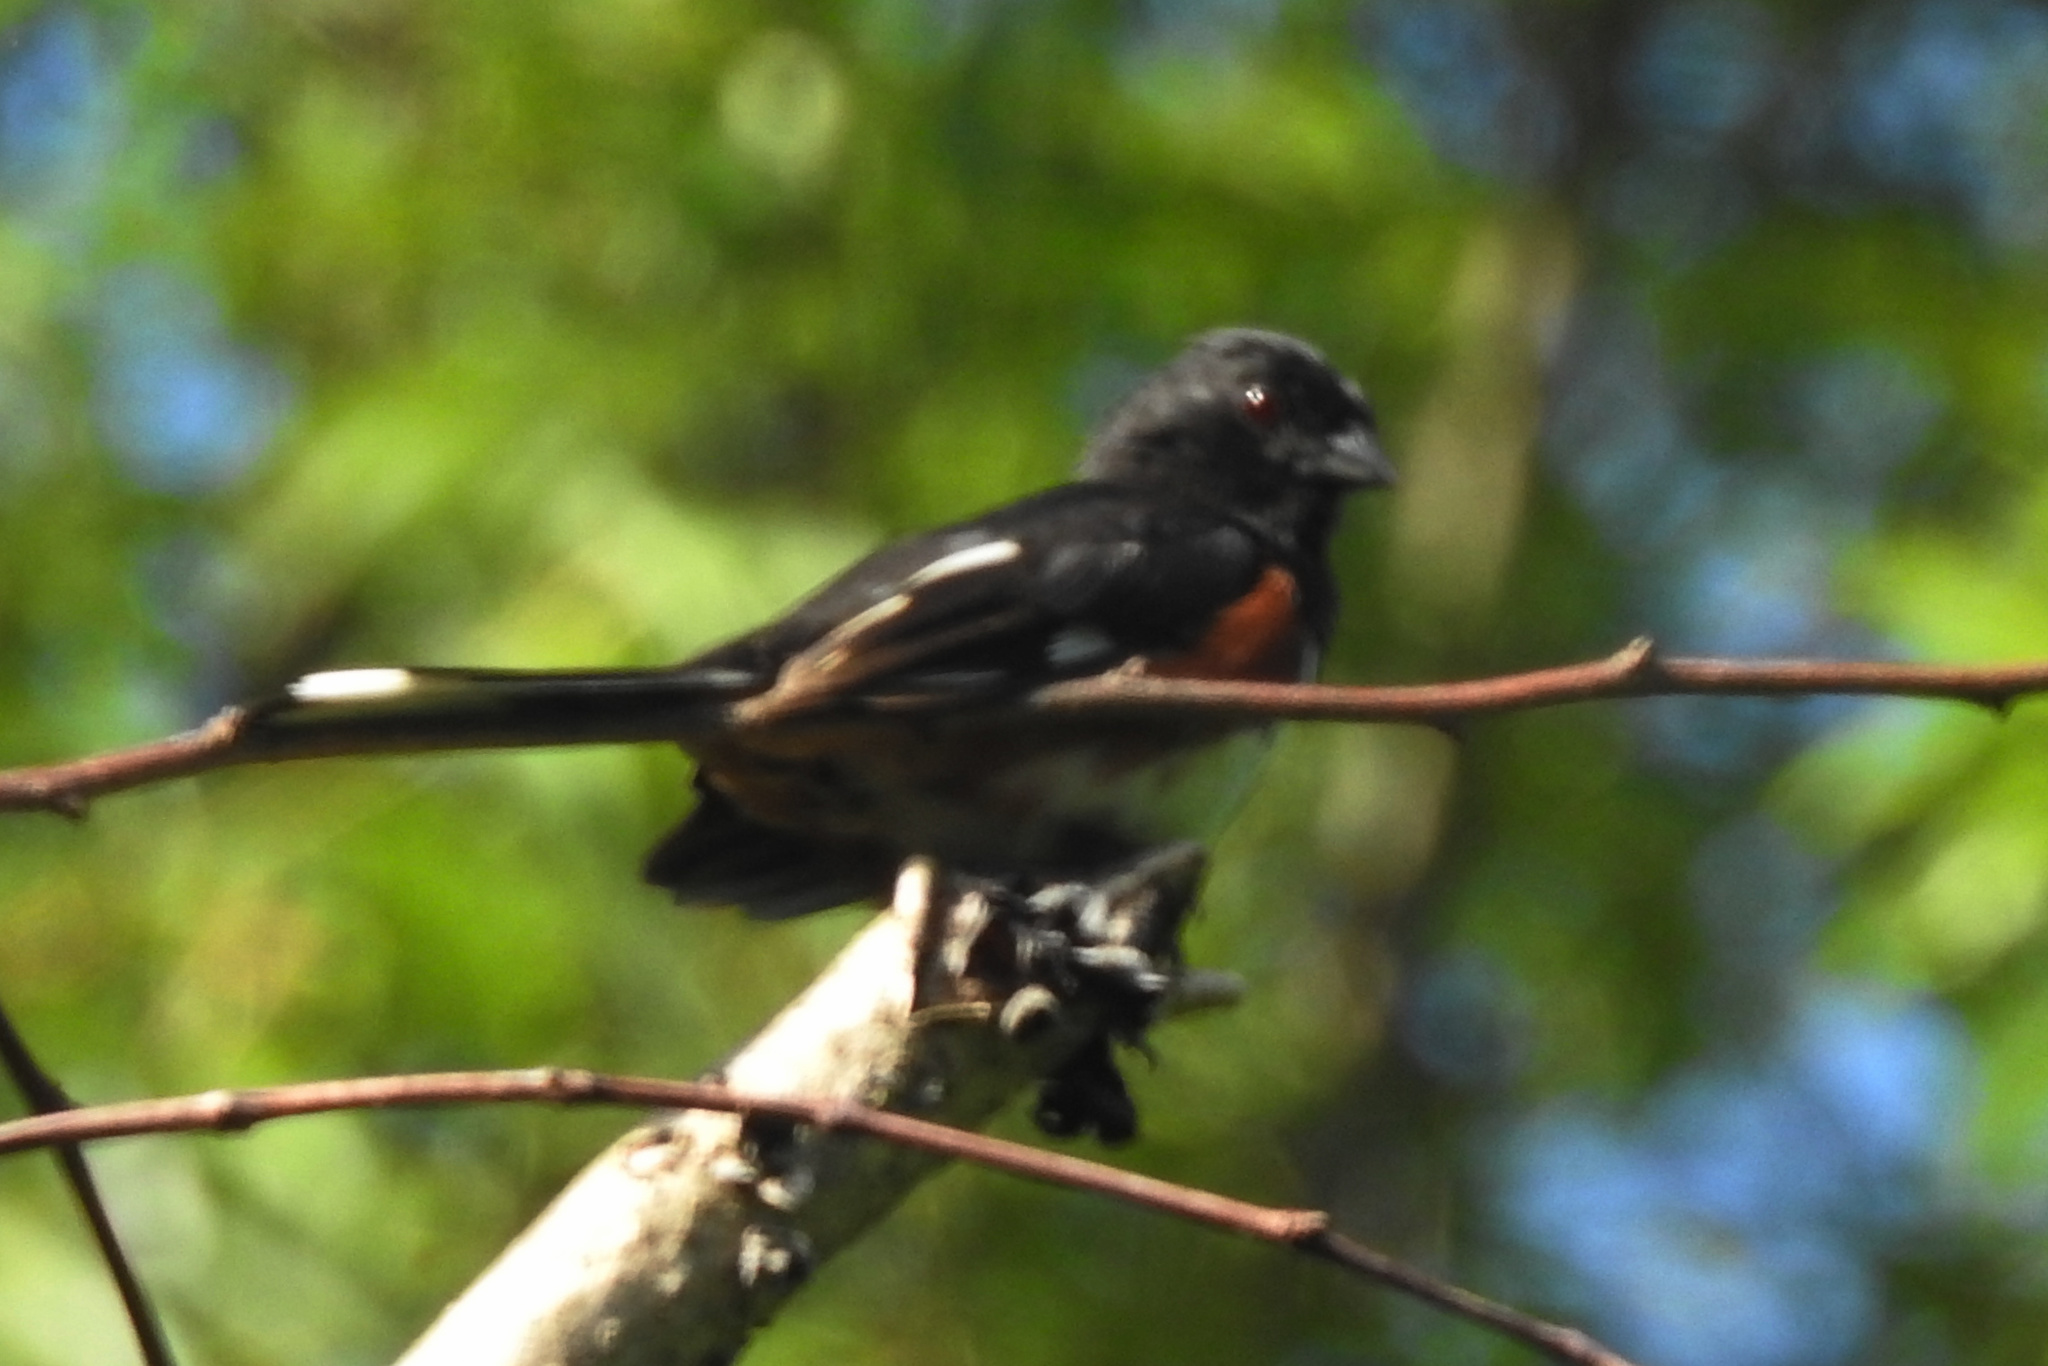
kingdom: Animalia
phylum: Chordata
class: Aves
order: Passeriformes
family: Passerellidae
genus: Pipilo
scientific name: Pipilo erythrophthalmus
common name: Eastern towhee
